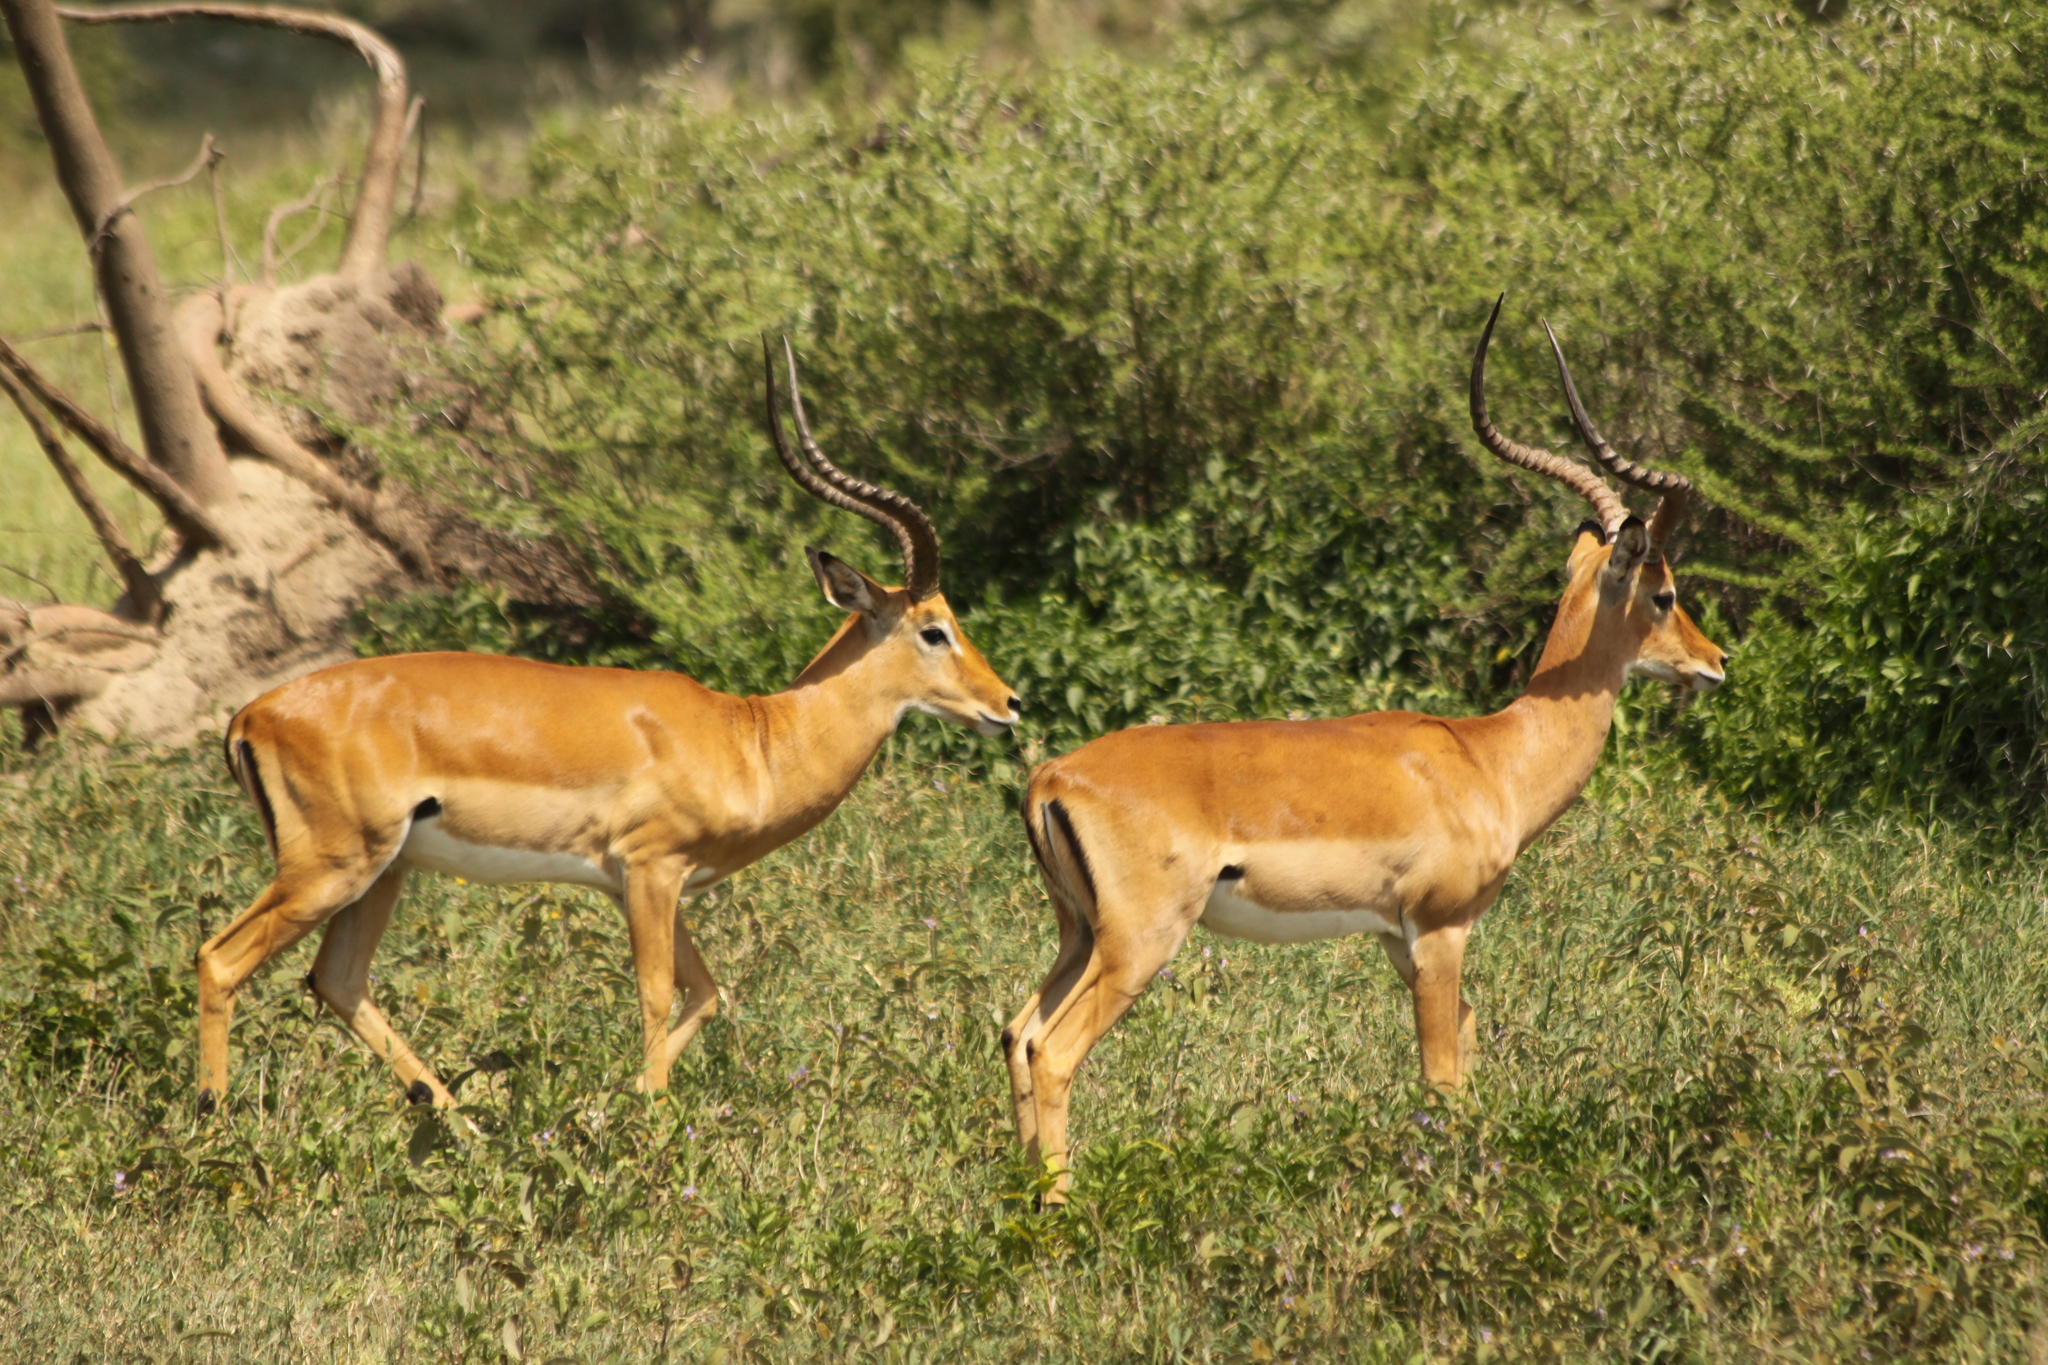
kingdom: Animalia
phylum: Chordata
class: Mammalia
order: Artiodactyla
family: Bovidae
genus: Aepyceros
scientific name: Aepyceros melampus
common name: Impala
